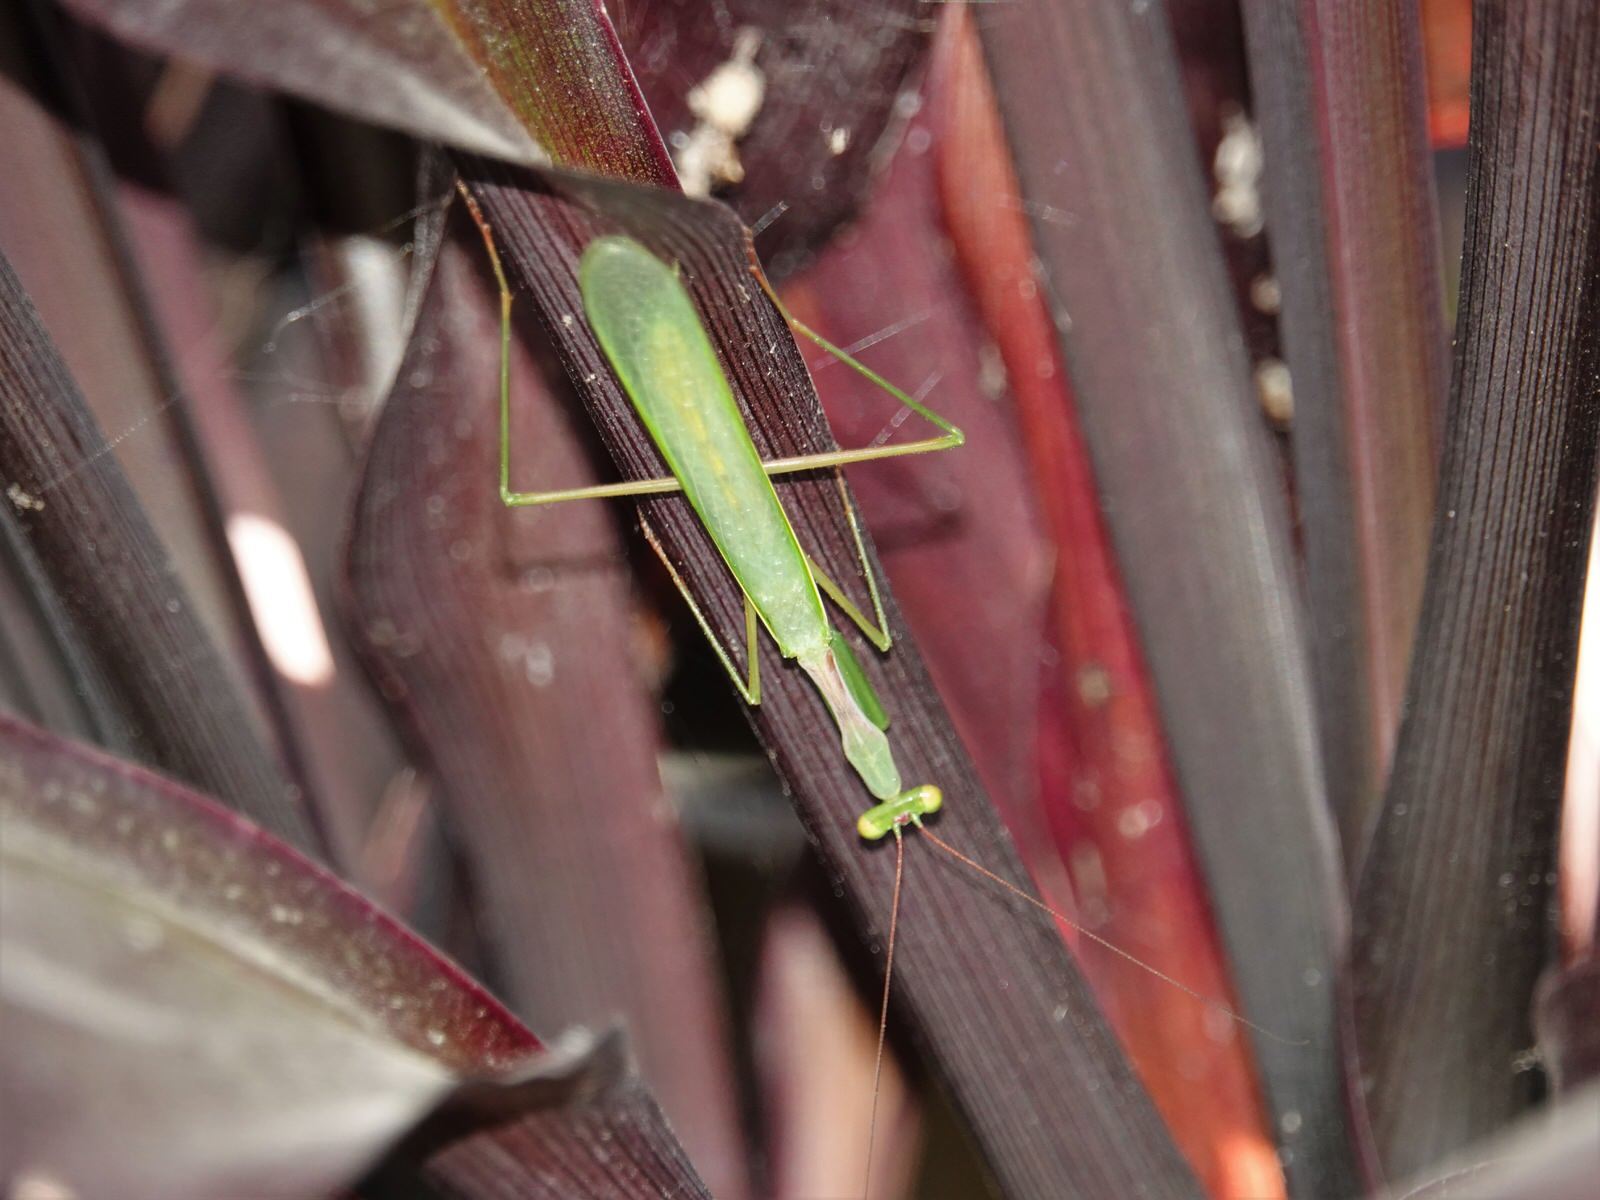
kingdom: Animalia
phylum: Arthropoda
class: Insecta
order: Mantodea
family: Miomantidae
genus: Miomantis
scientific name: Miomantis caffra
